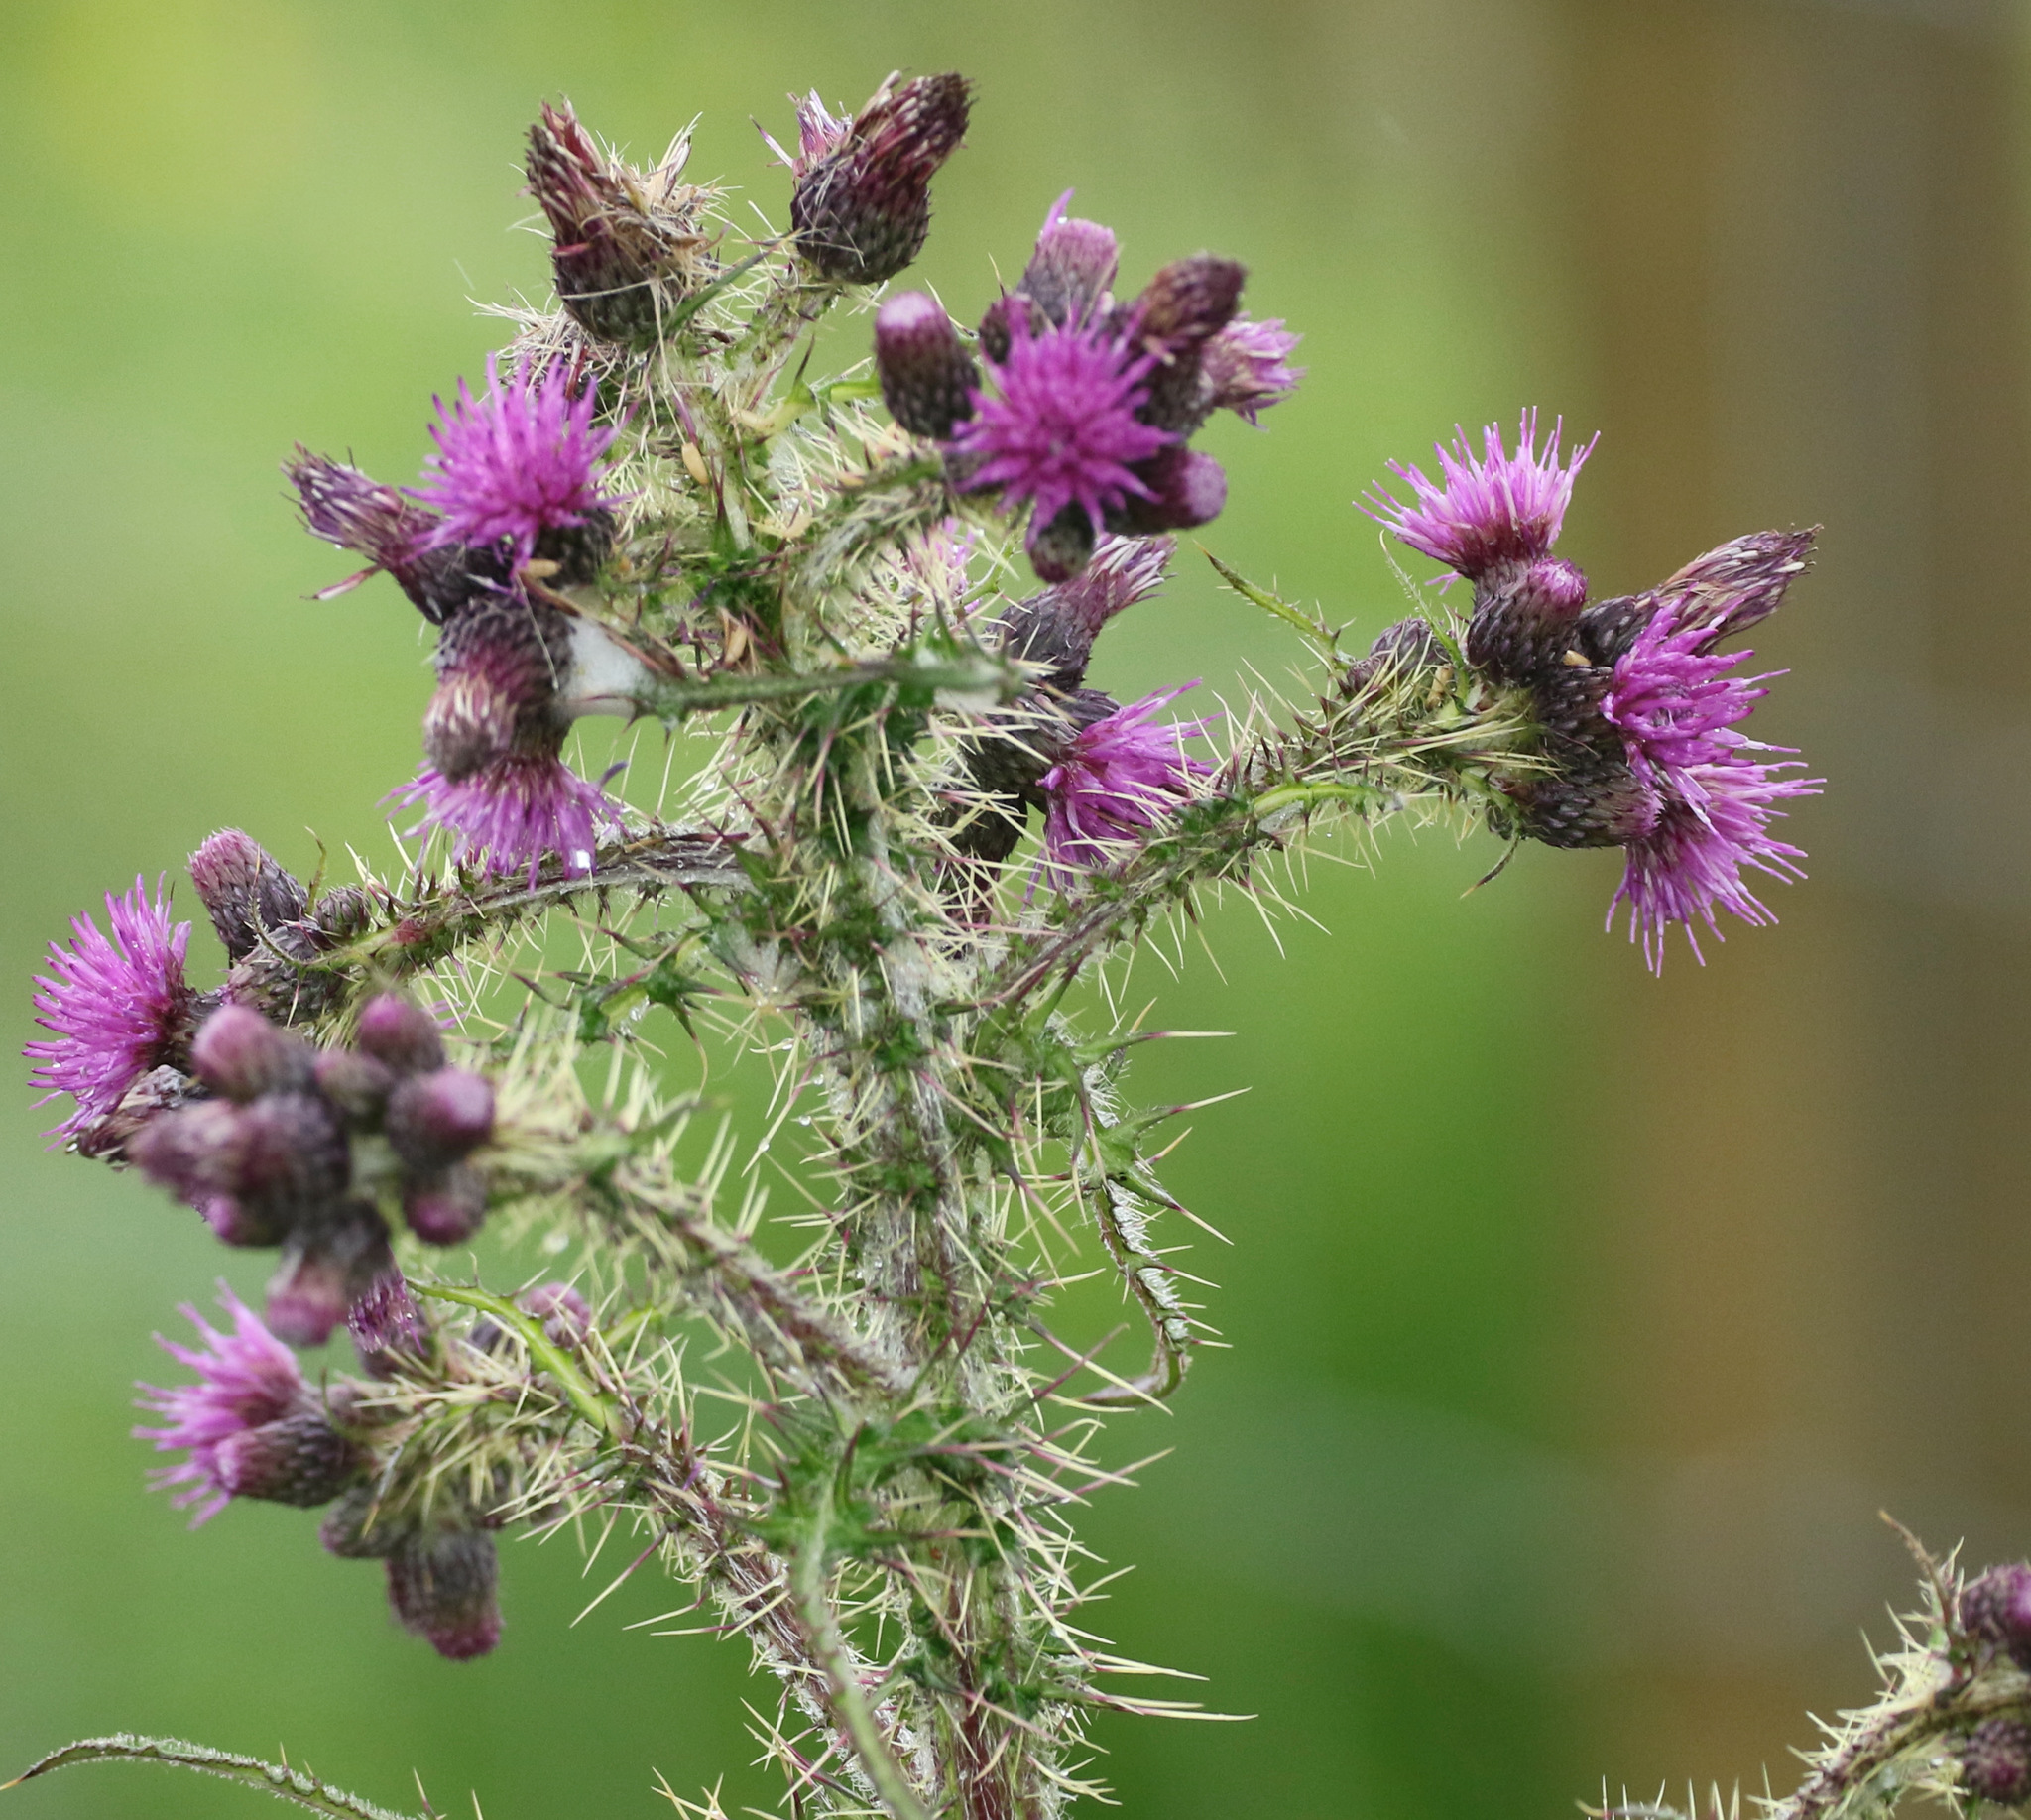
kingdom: Plantae
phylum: Tracheophyta
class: Magnoliopsida
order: Asterales
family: Asteraceae
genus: Cirsium
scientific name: Cirsium palustre
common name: Marsh thistle
